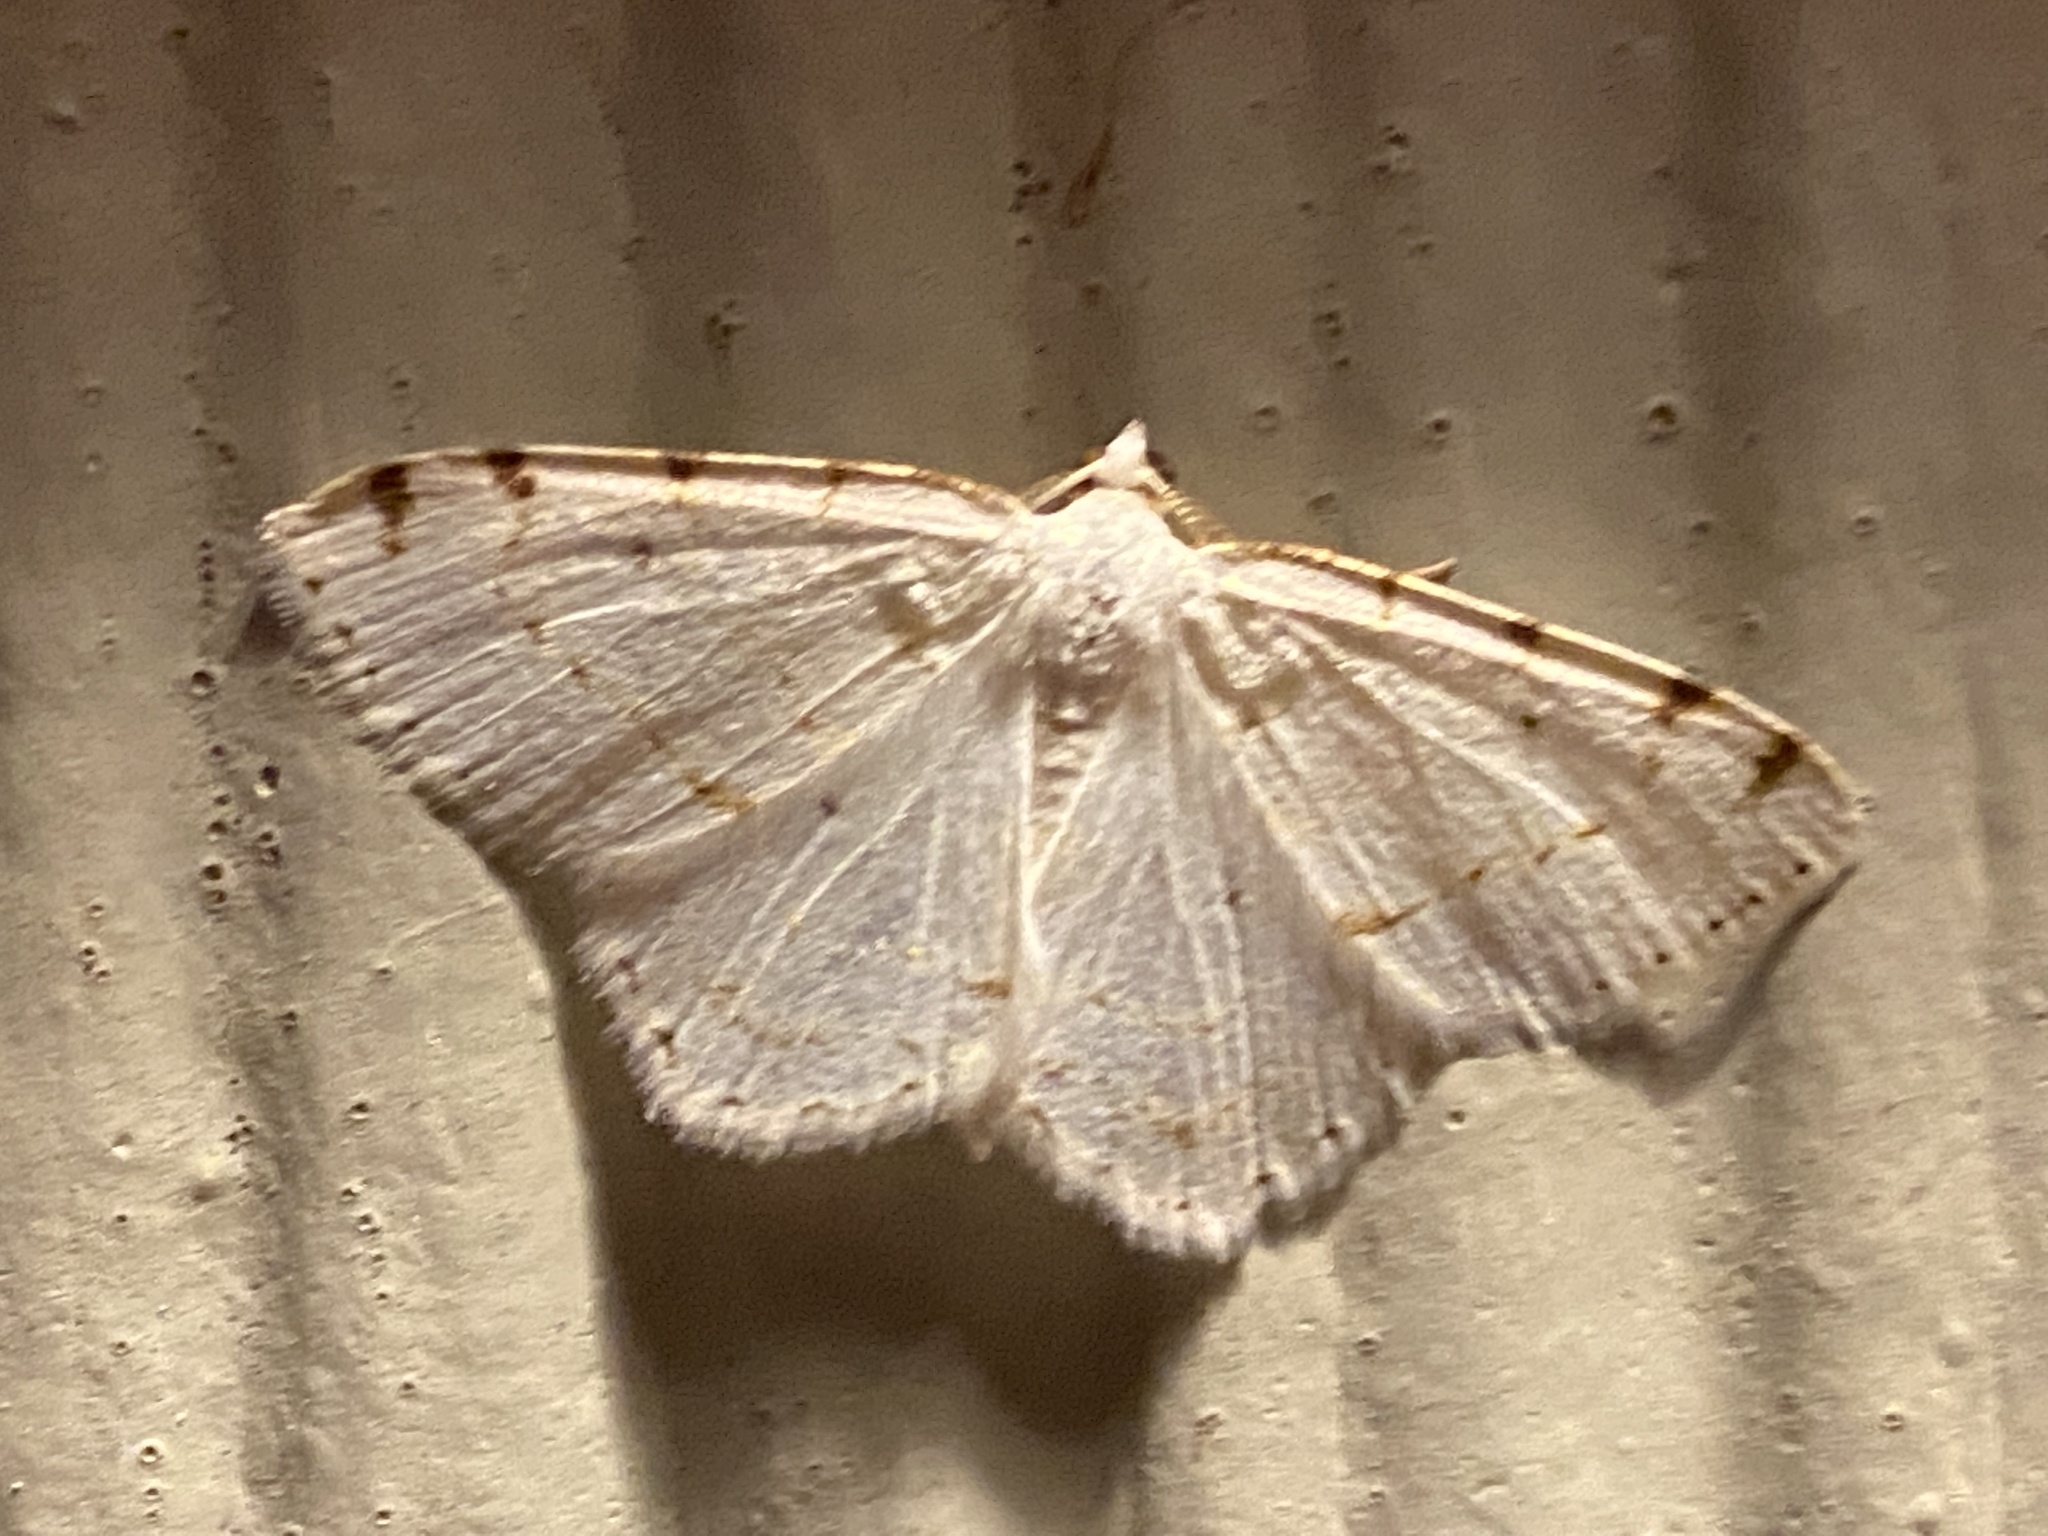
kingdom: Animalia
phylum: Arthropoda
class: Insecta
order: Lepidoptera
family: Geometridae
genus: Macaria
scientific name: Macaria pustularia
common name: Lesser maple spanworm moth
